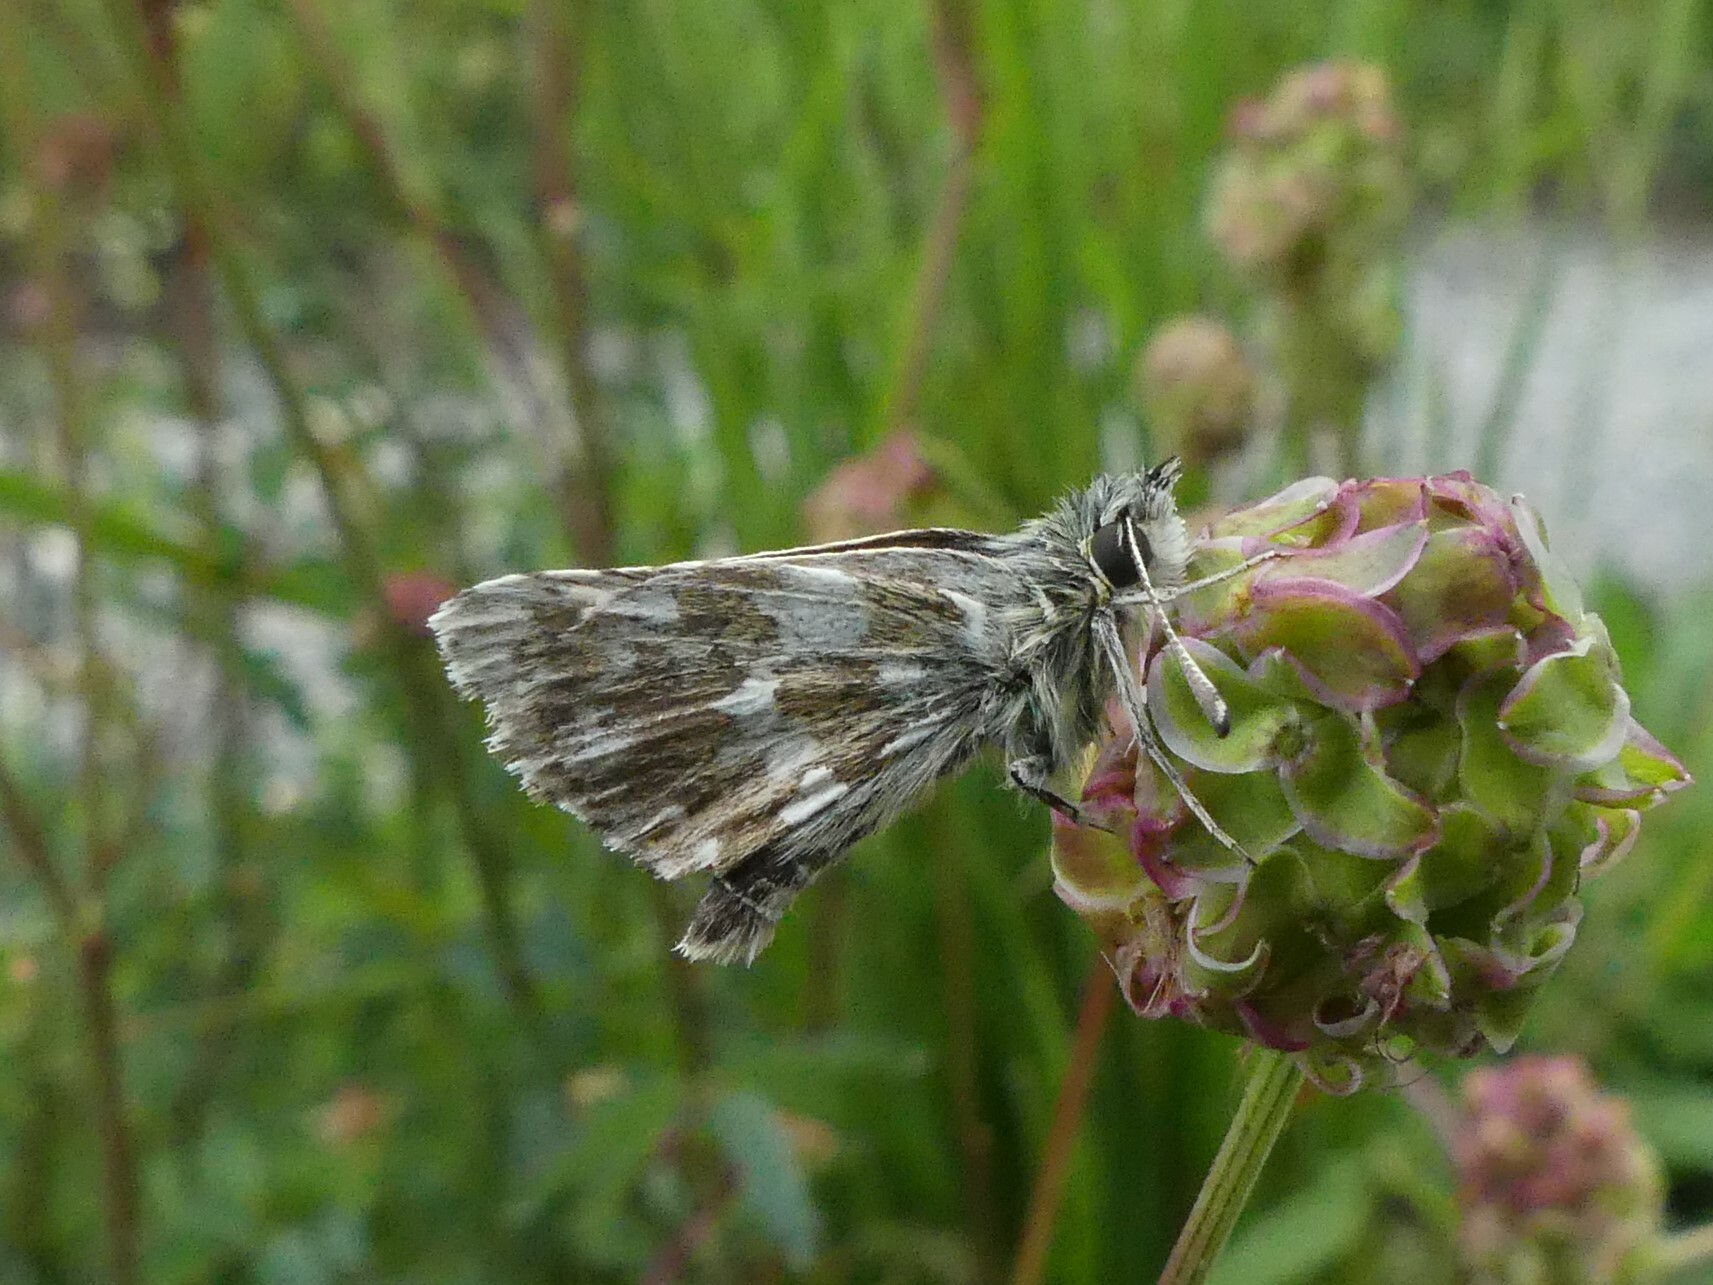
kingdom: Animalia
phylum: Arthropoda
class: Insecta
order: Lepidoptera
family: Hesperiidae
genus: Spialia
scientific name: Spialia sertorius
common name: Red underwing skipper
